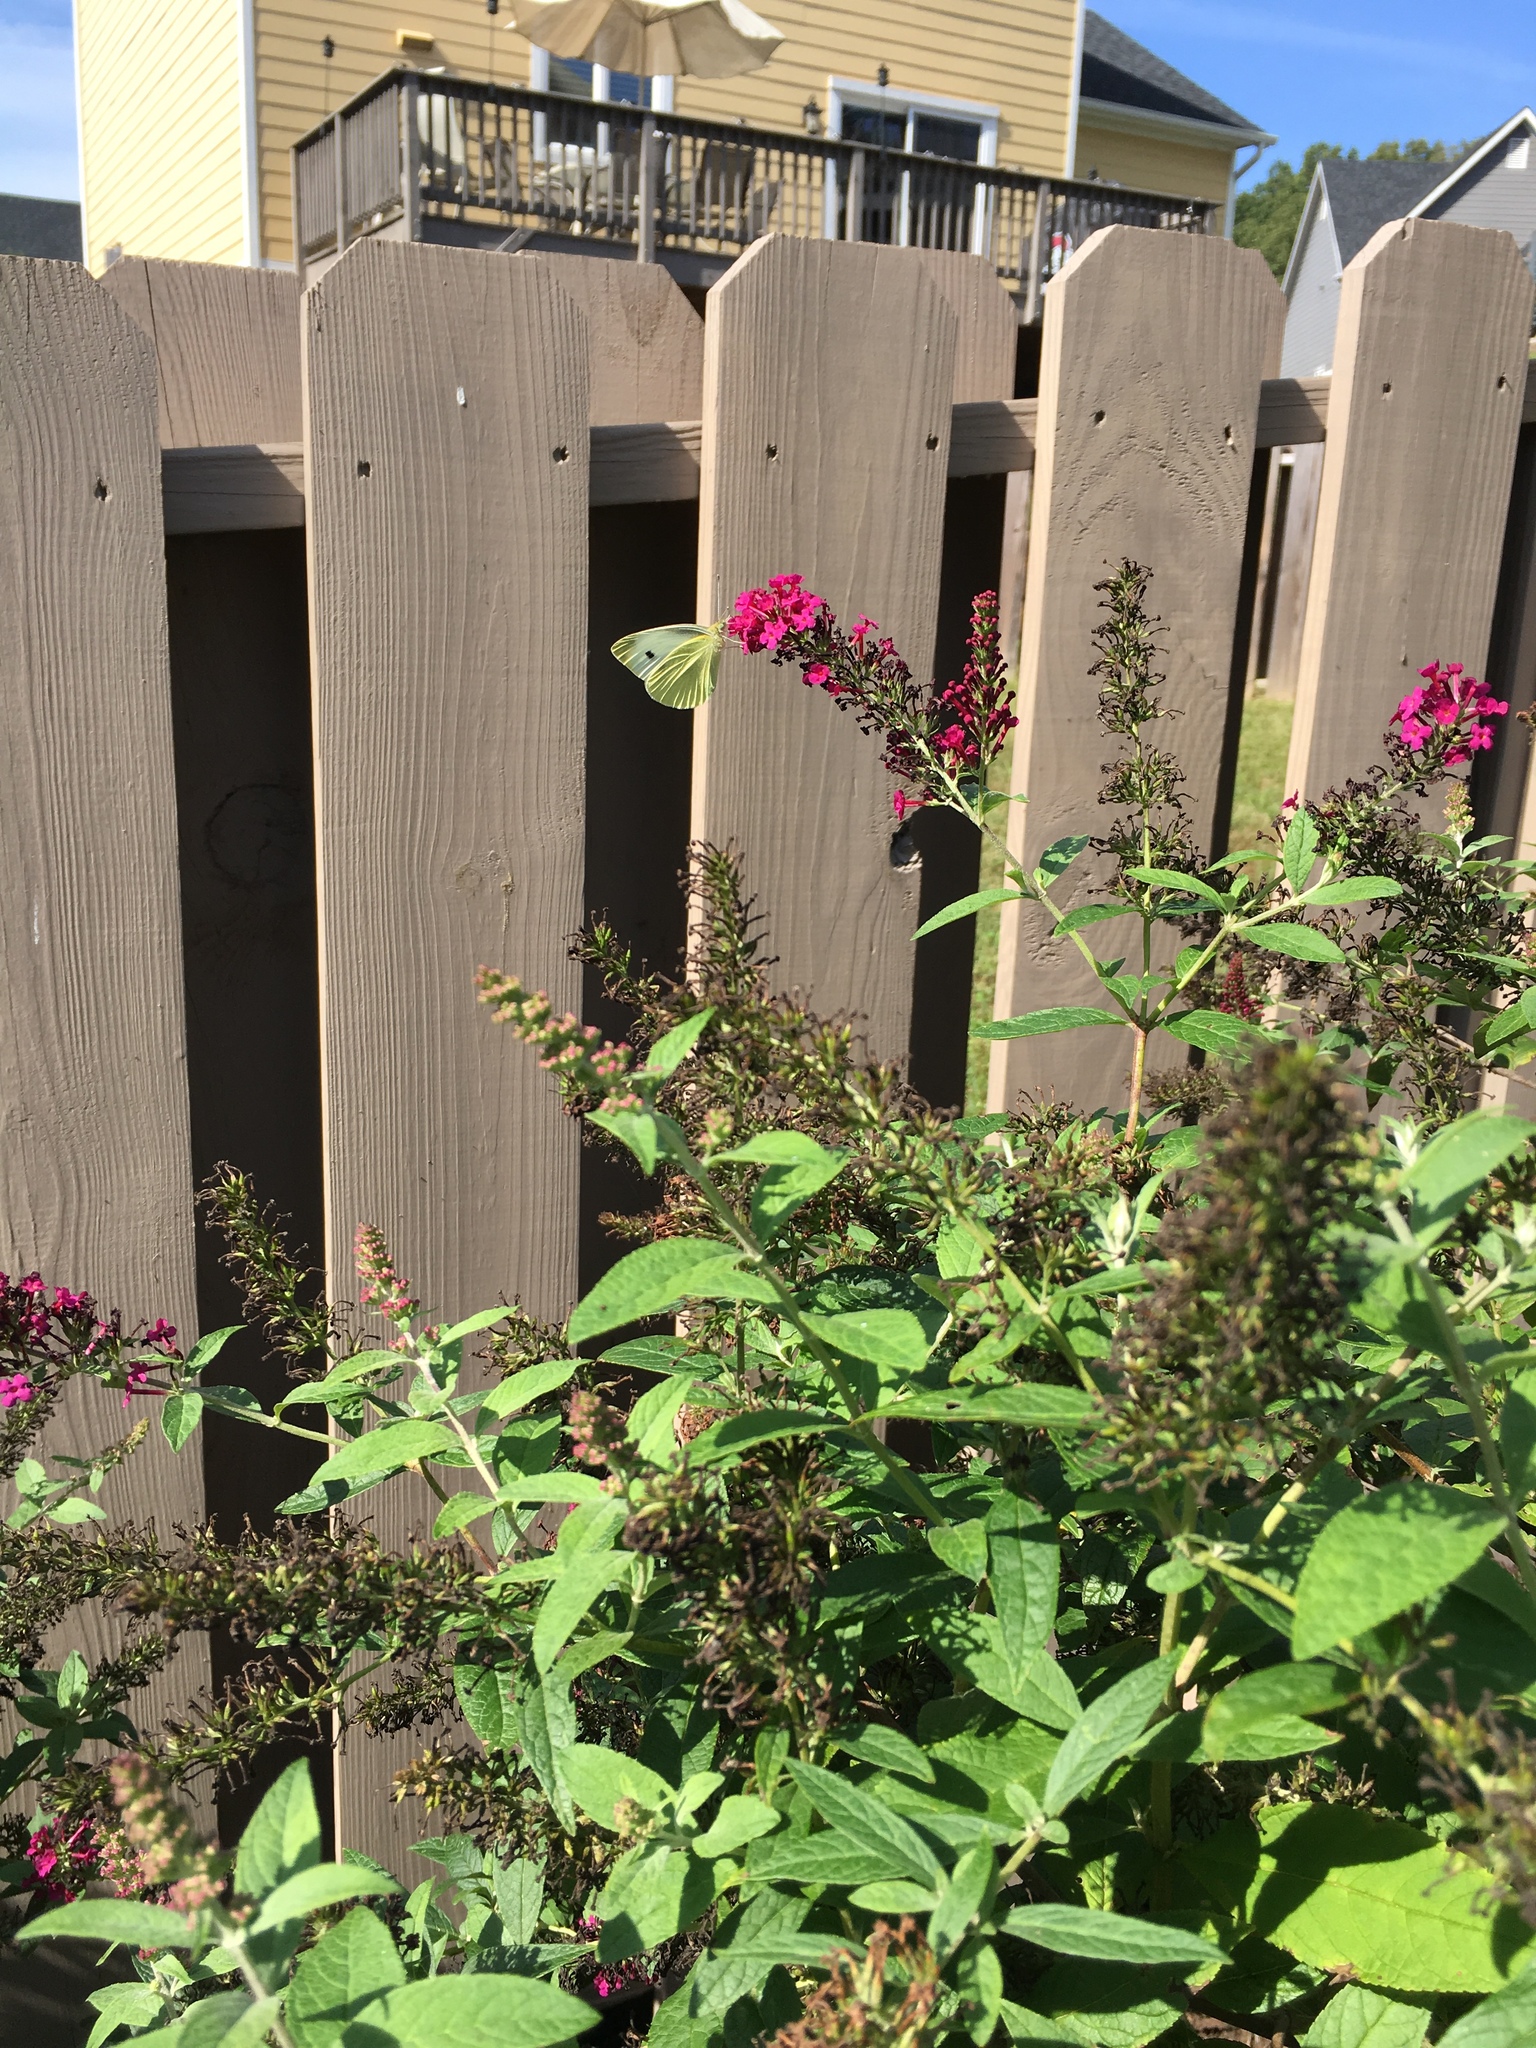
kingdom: Animalia
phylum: Arthropoda
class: Insecta
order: Lepidoptera
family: Pieridae
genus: Pieris
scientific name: Pieris rapae
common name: Small white
